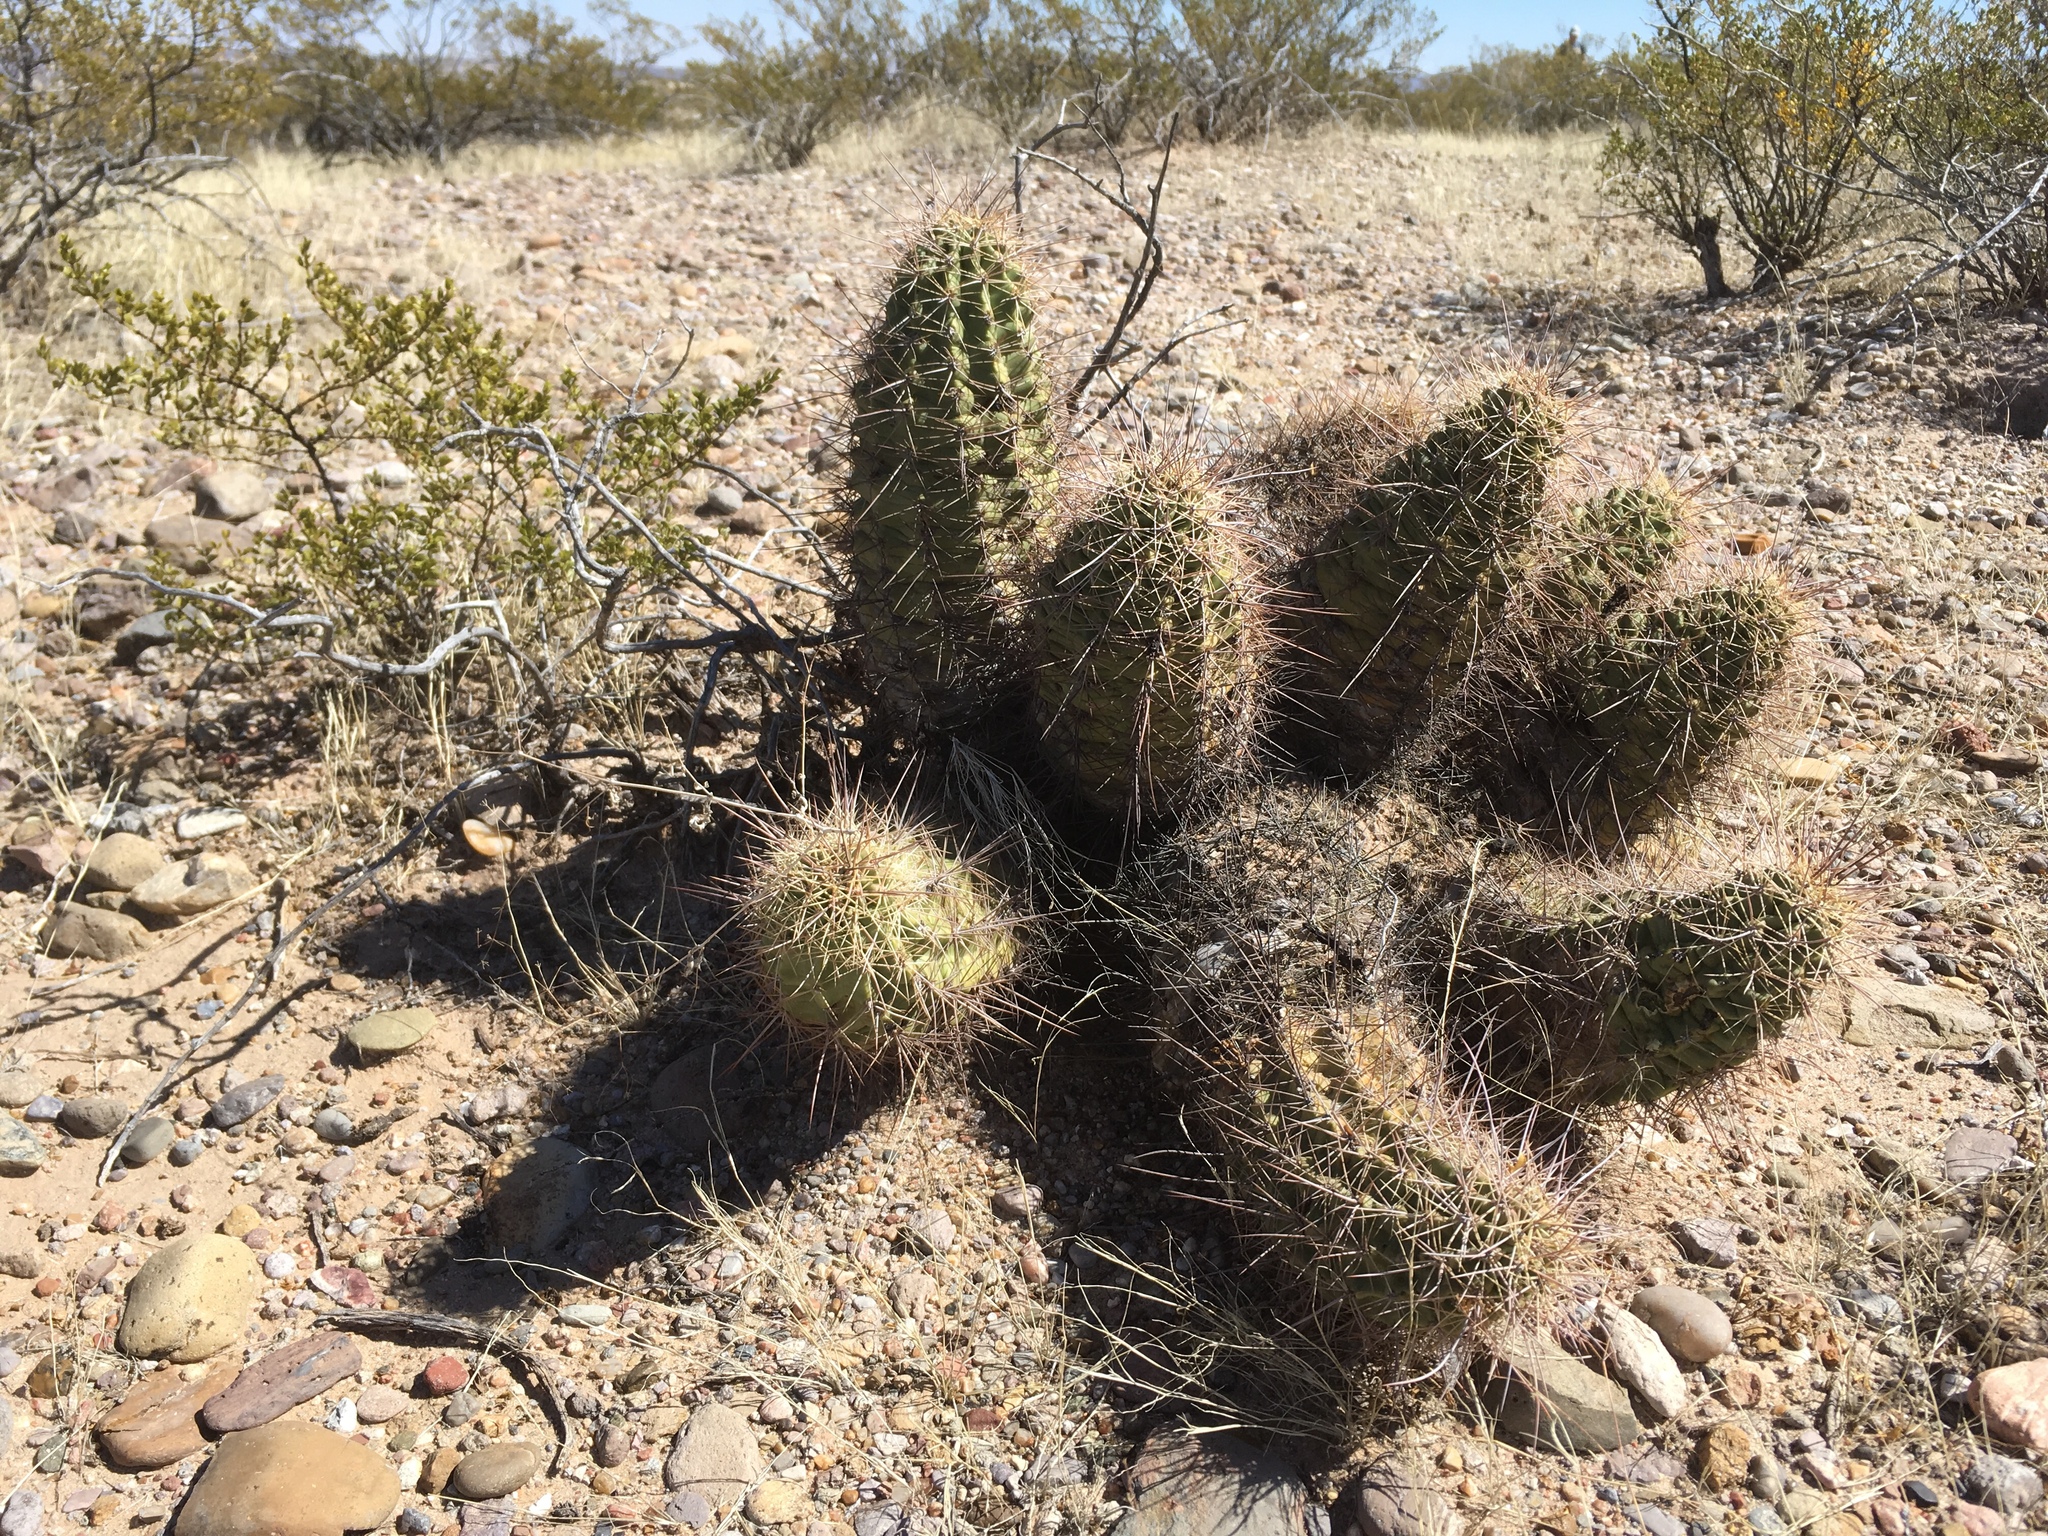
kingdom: Plantae
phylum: Tracheophyta
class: Magnoliopsida
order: Caryophyllales
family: Cactaceae
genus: Echinocereus
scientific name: Echinocereus coccineus
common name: Scarlet hedgehog cactus
